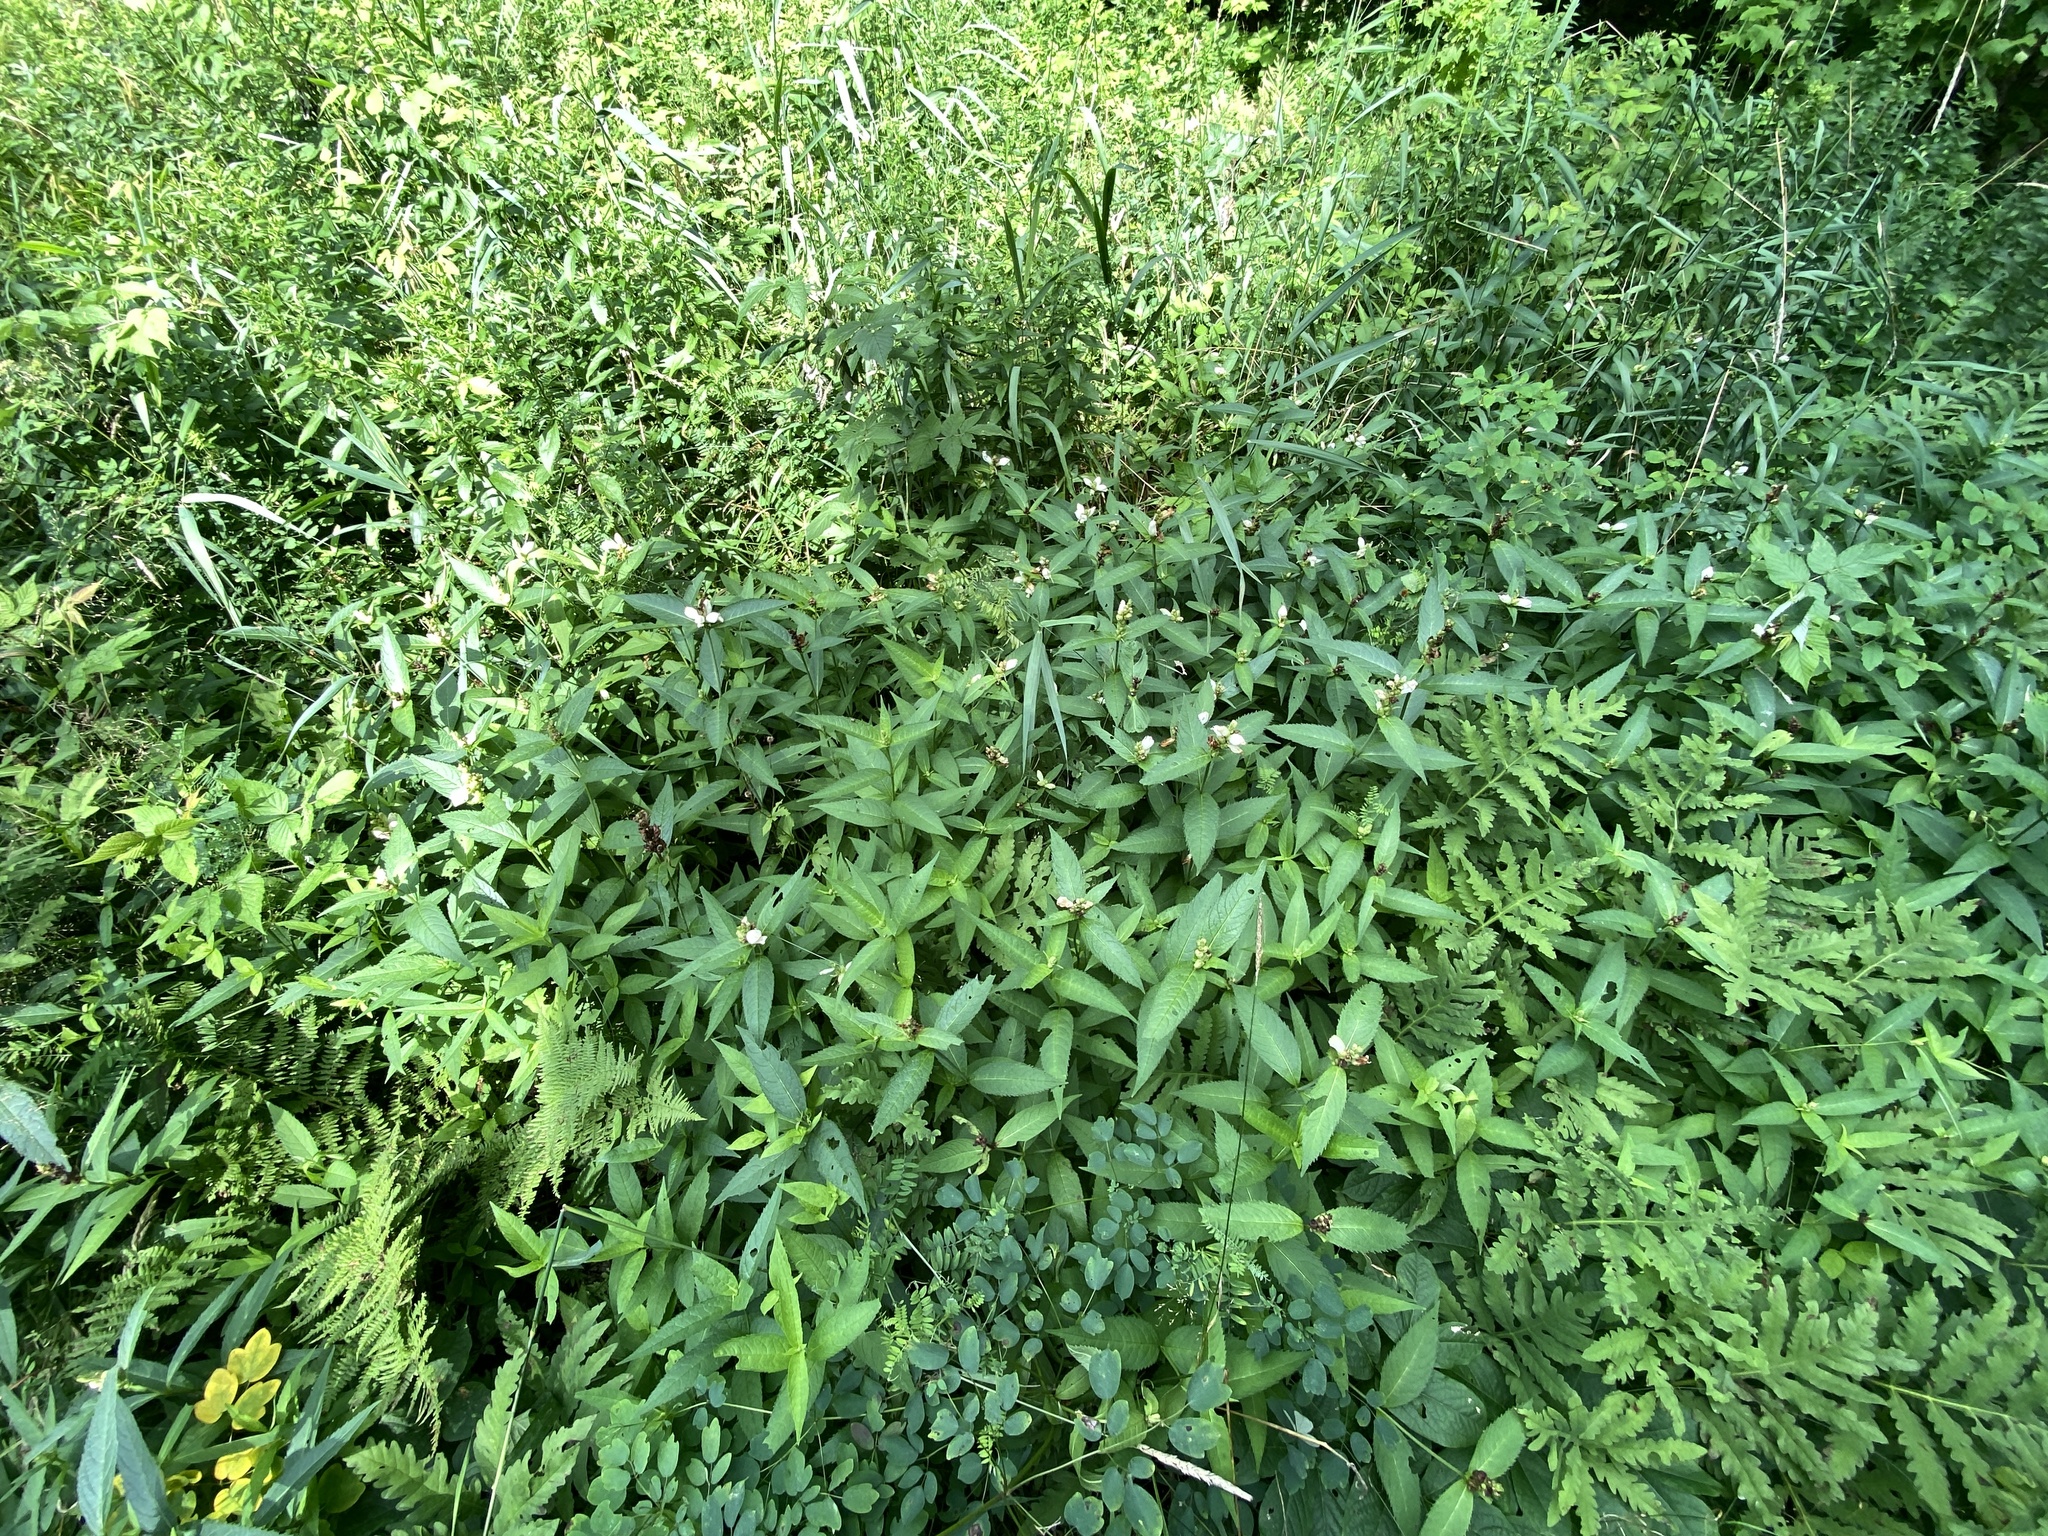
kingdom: Plantae
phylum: Tracheophyta
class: Magnoliopsida
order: Lamiales
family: Plantaginaceae
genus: Chelone
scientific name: Chelone glabra
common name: Snakehead
